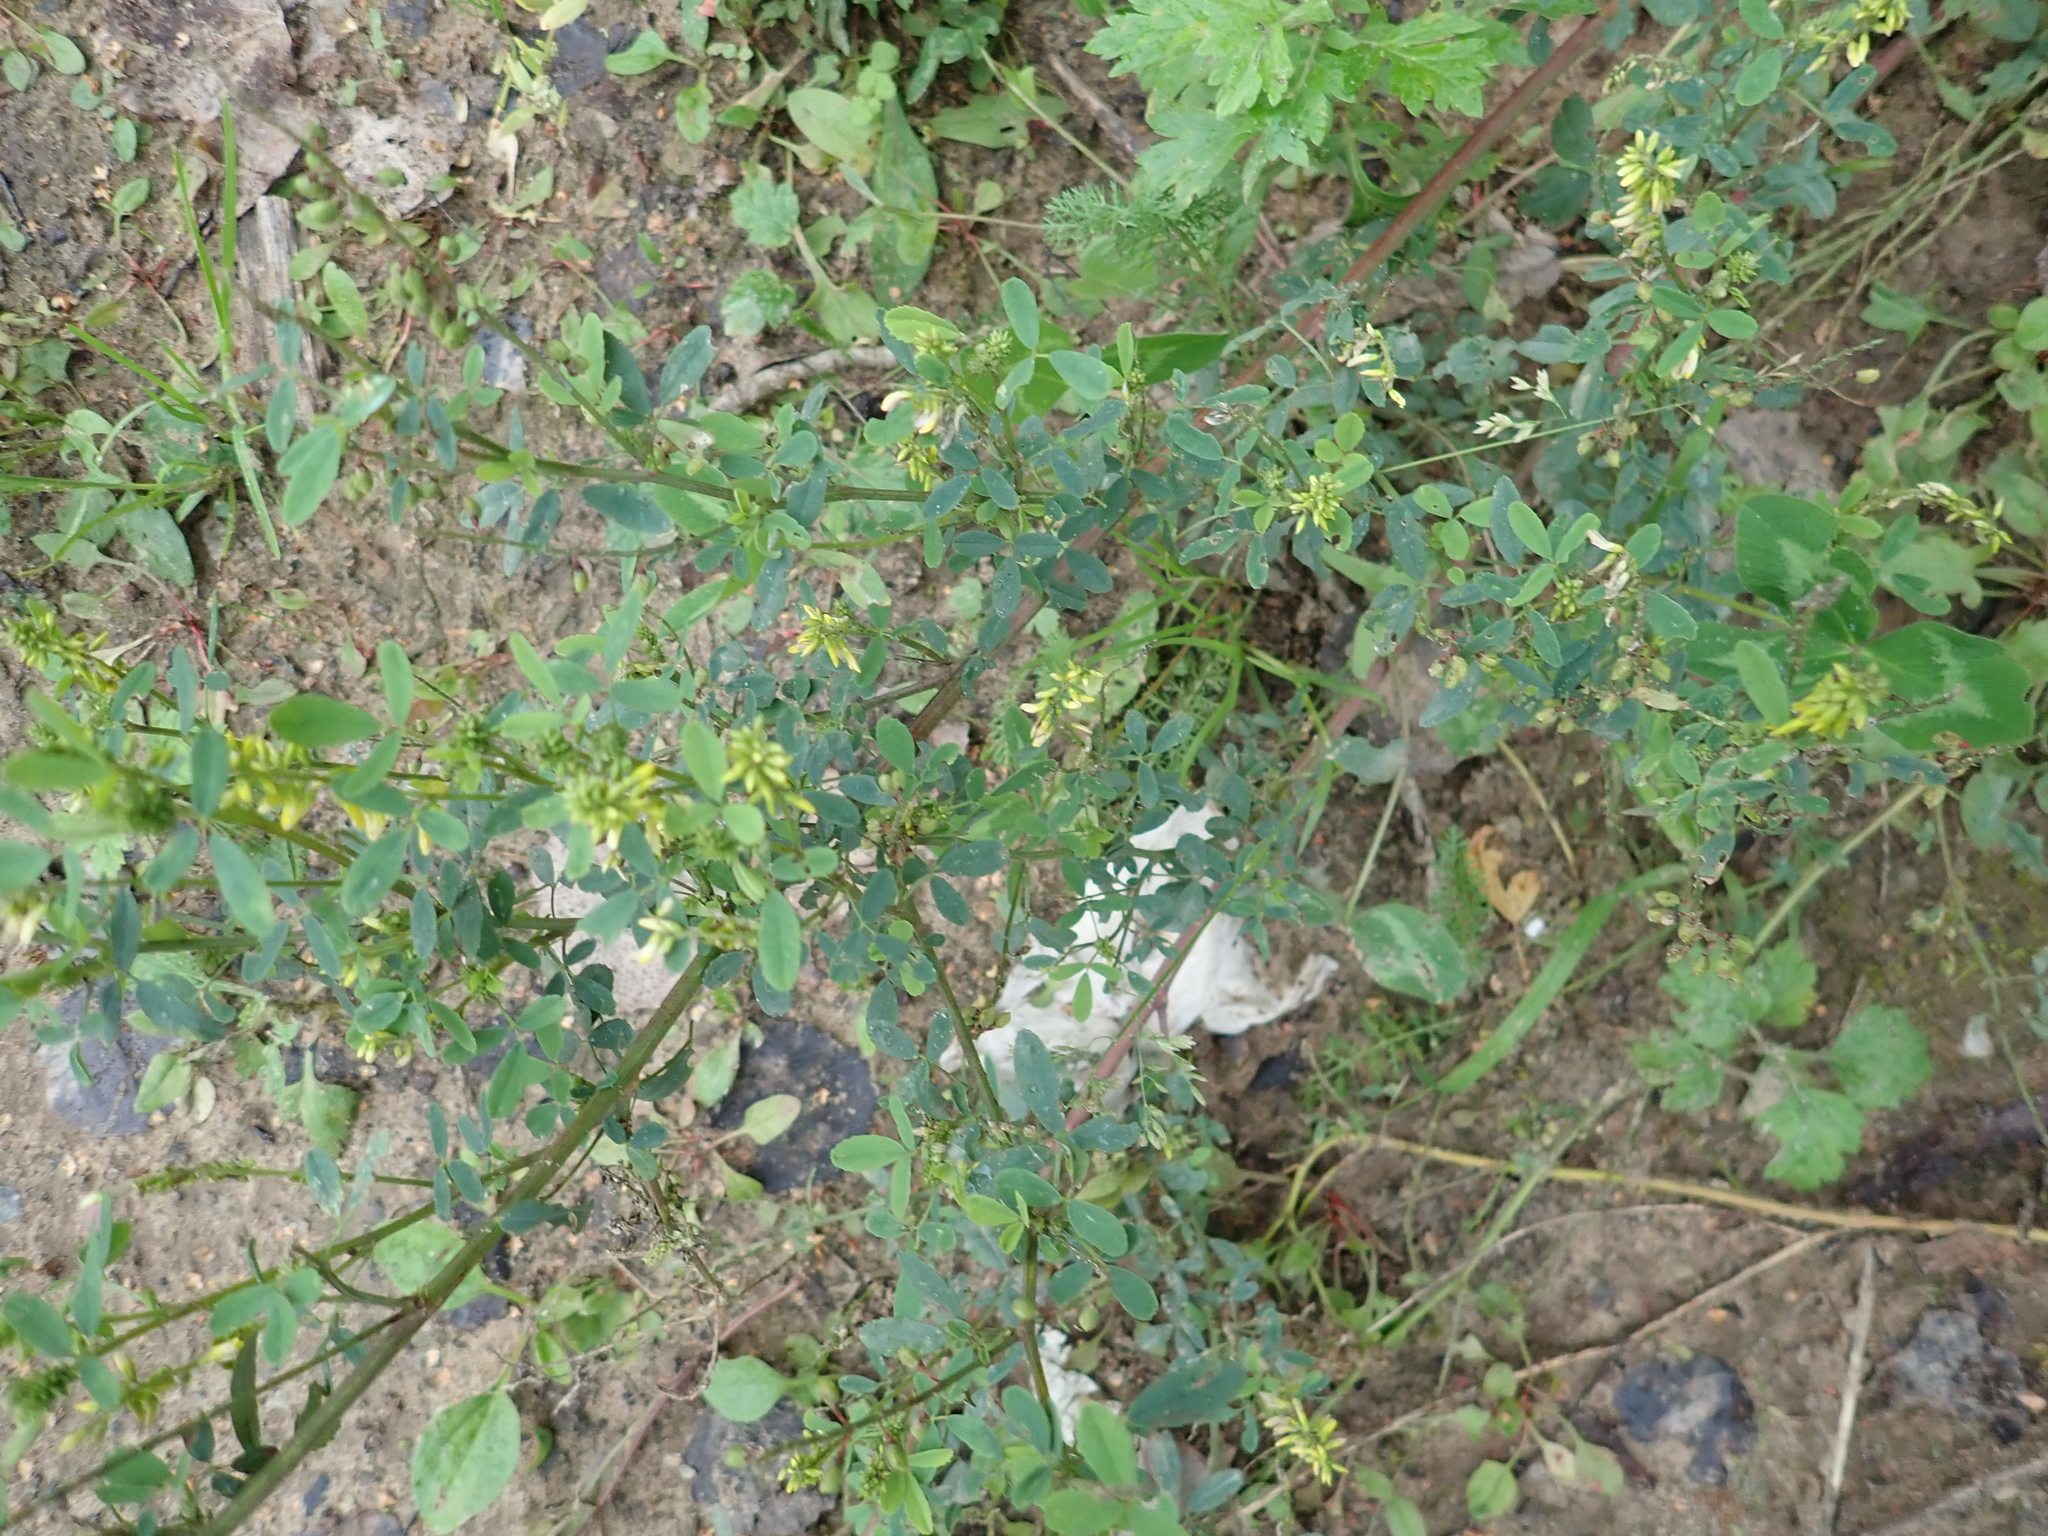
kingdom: Plantae
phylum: Tracheophyta
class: Magnoliopsida
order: Fabales
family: Fabaceae
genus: Melilotus
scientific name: Melilotus officinalis
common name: Sweetclover
